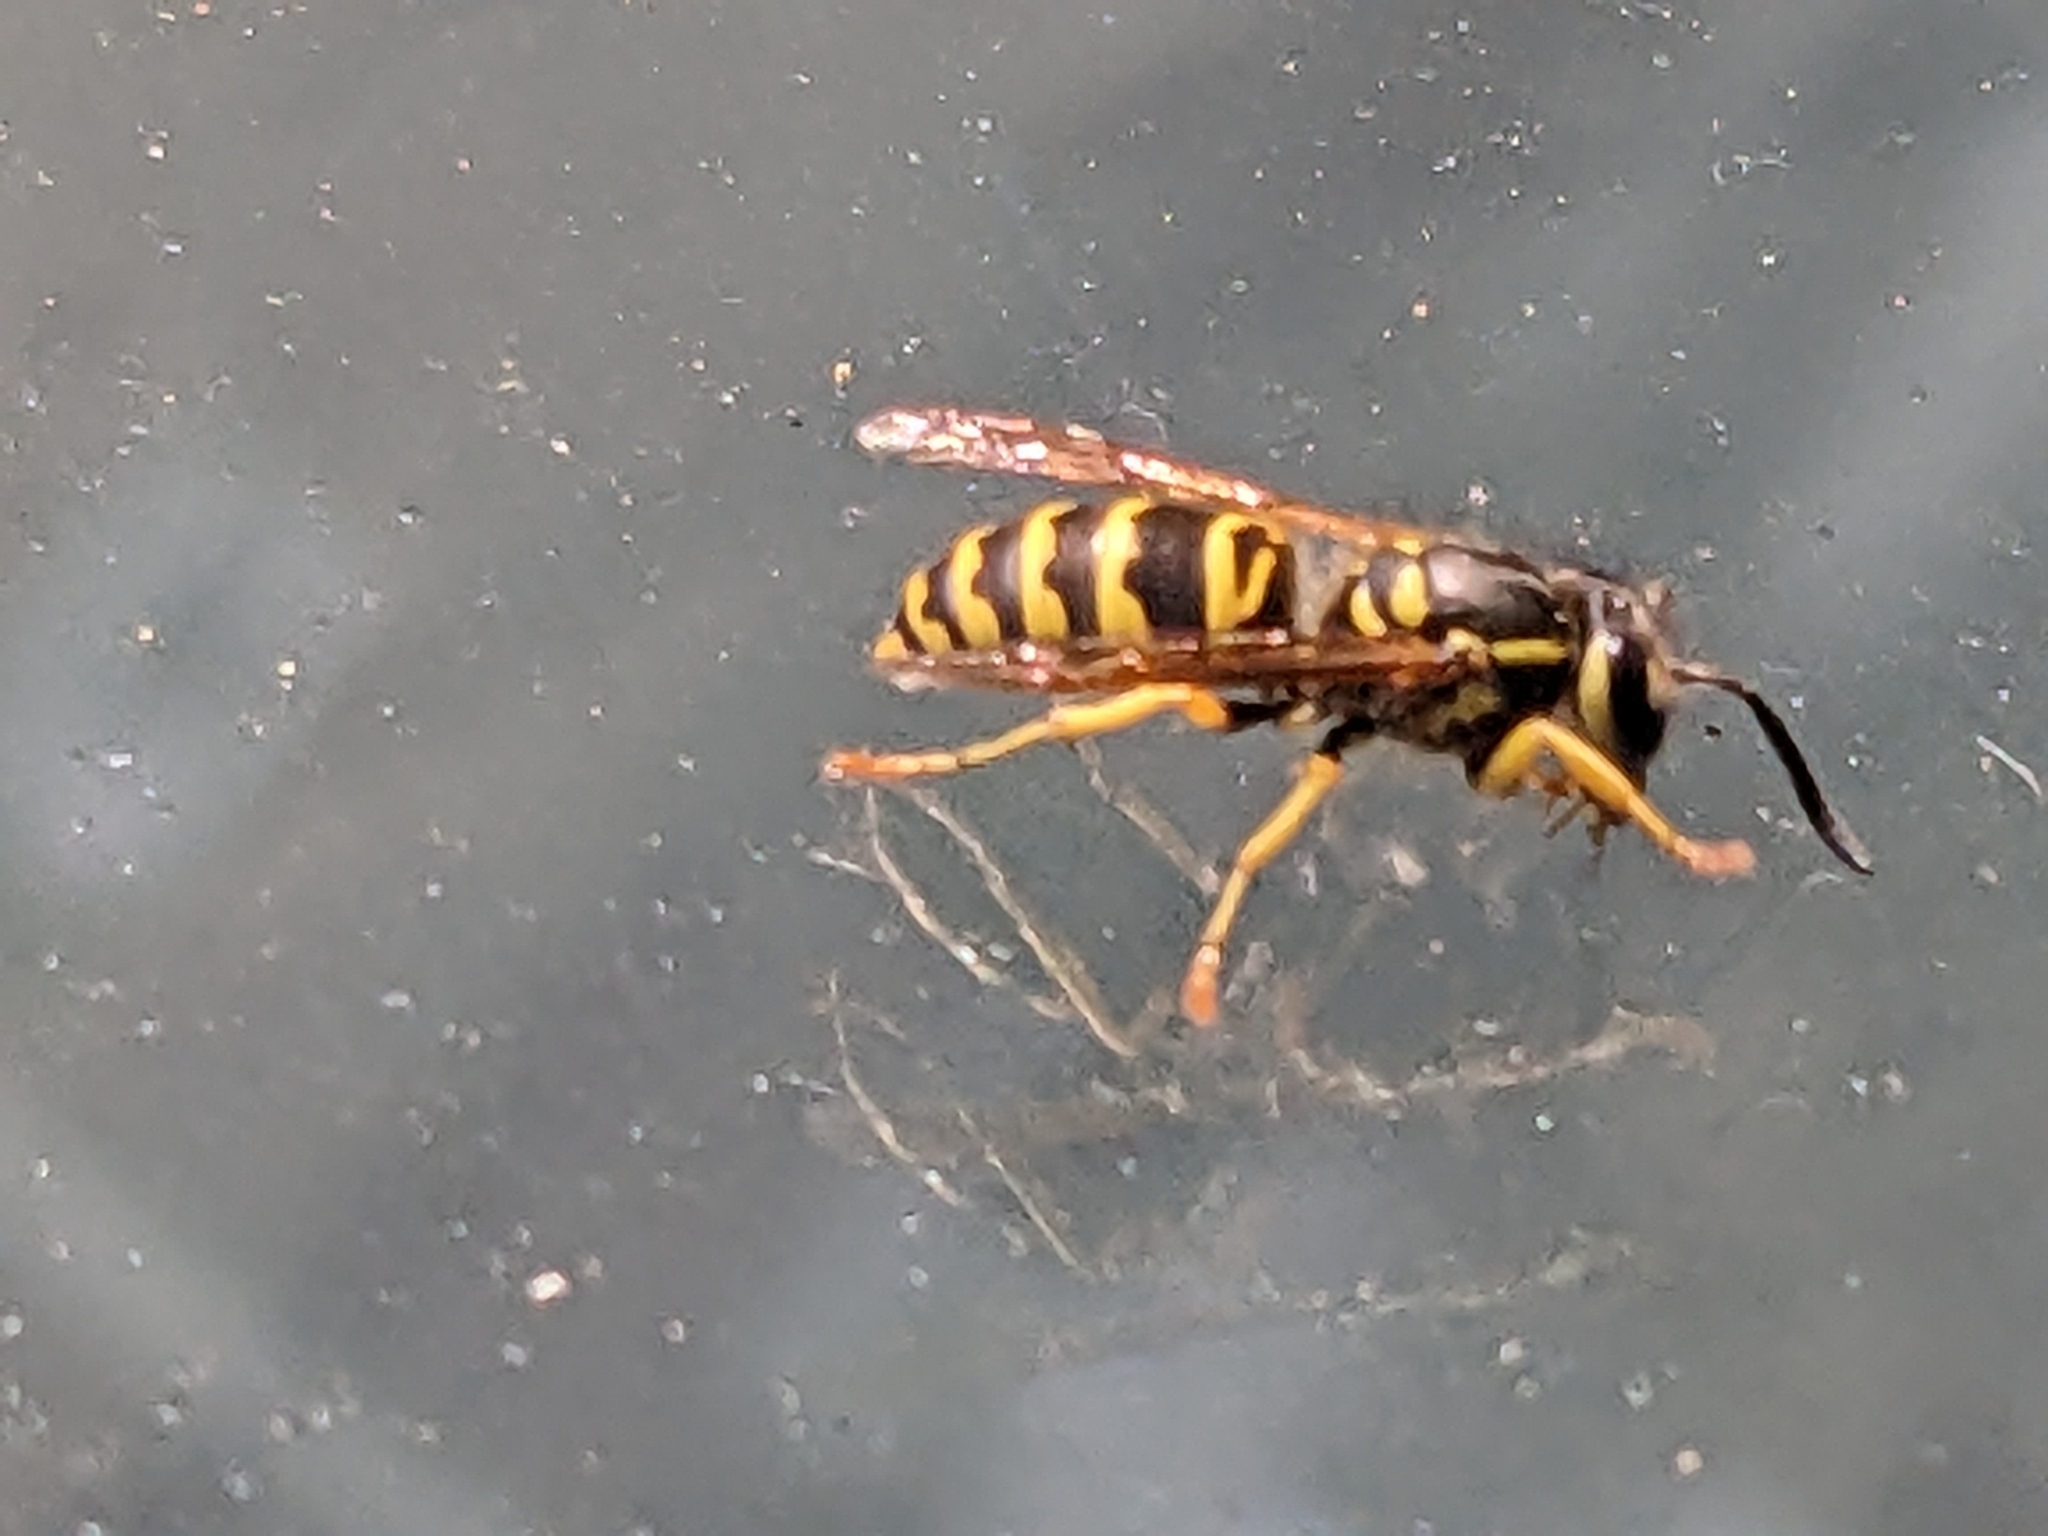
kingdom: Animalia
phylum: Arthropoda
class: Insecta
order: Hymenoptera
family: Vespidae
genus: Vespula
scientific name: Vespula maculifrons
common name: Eastern yellowjacket
